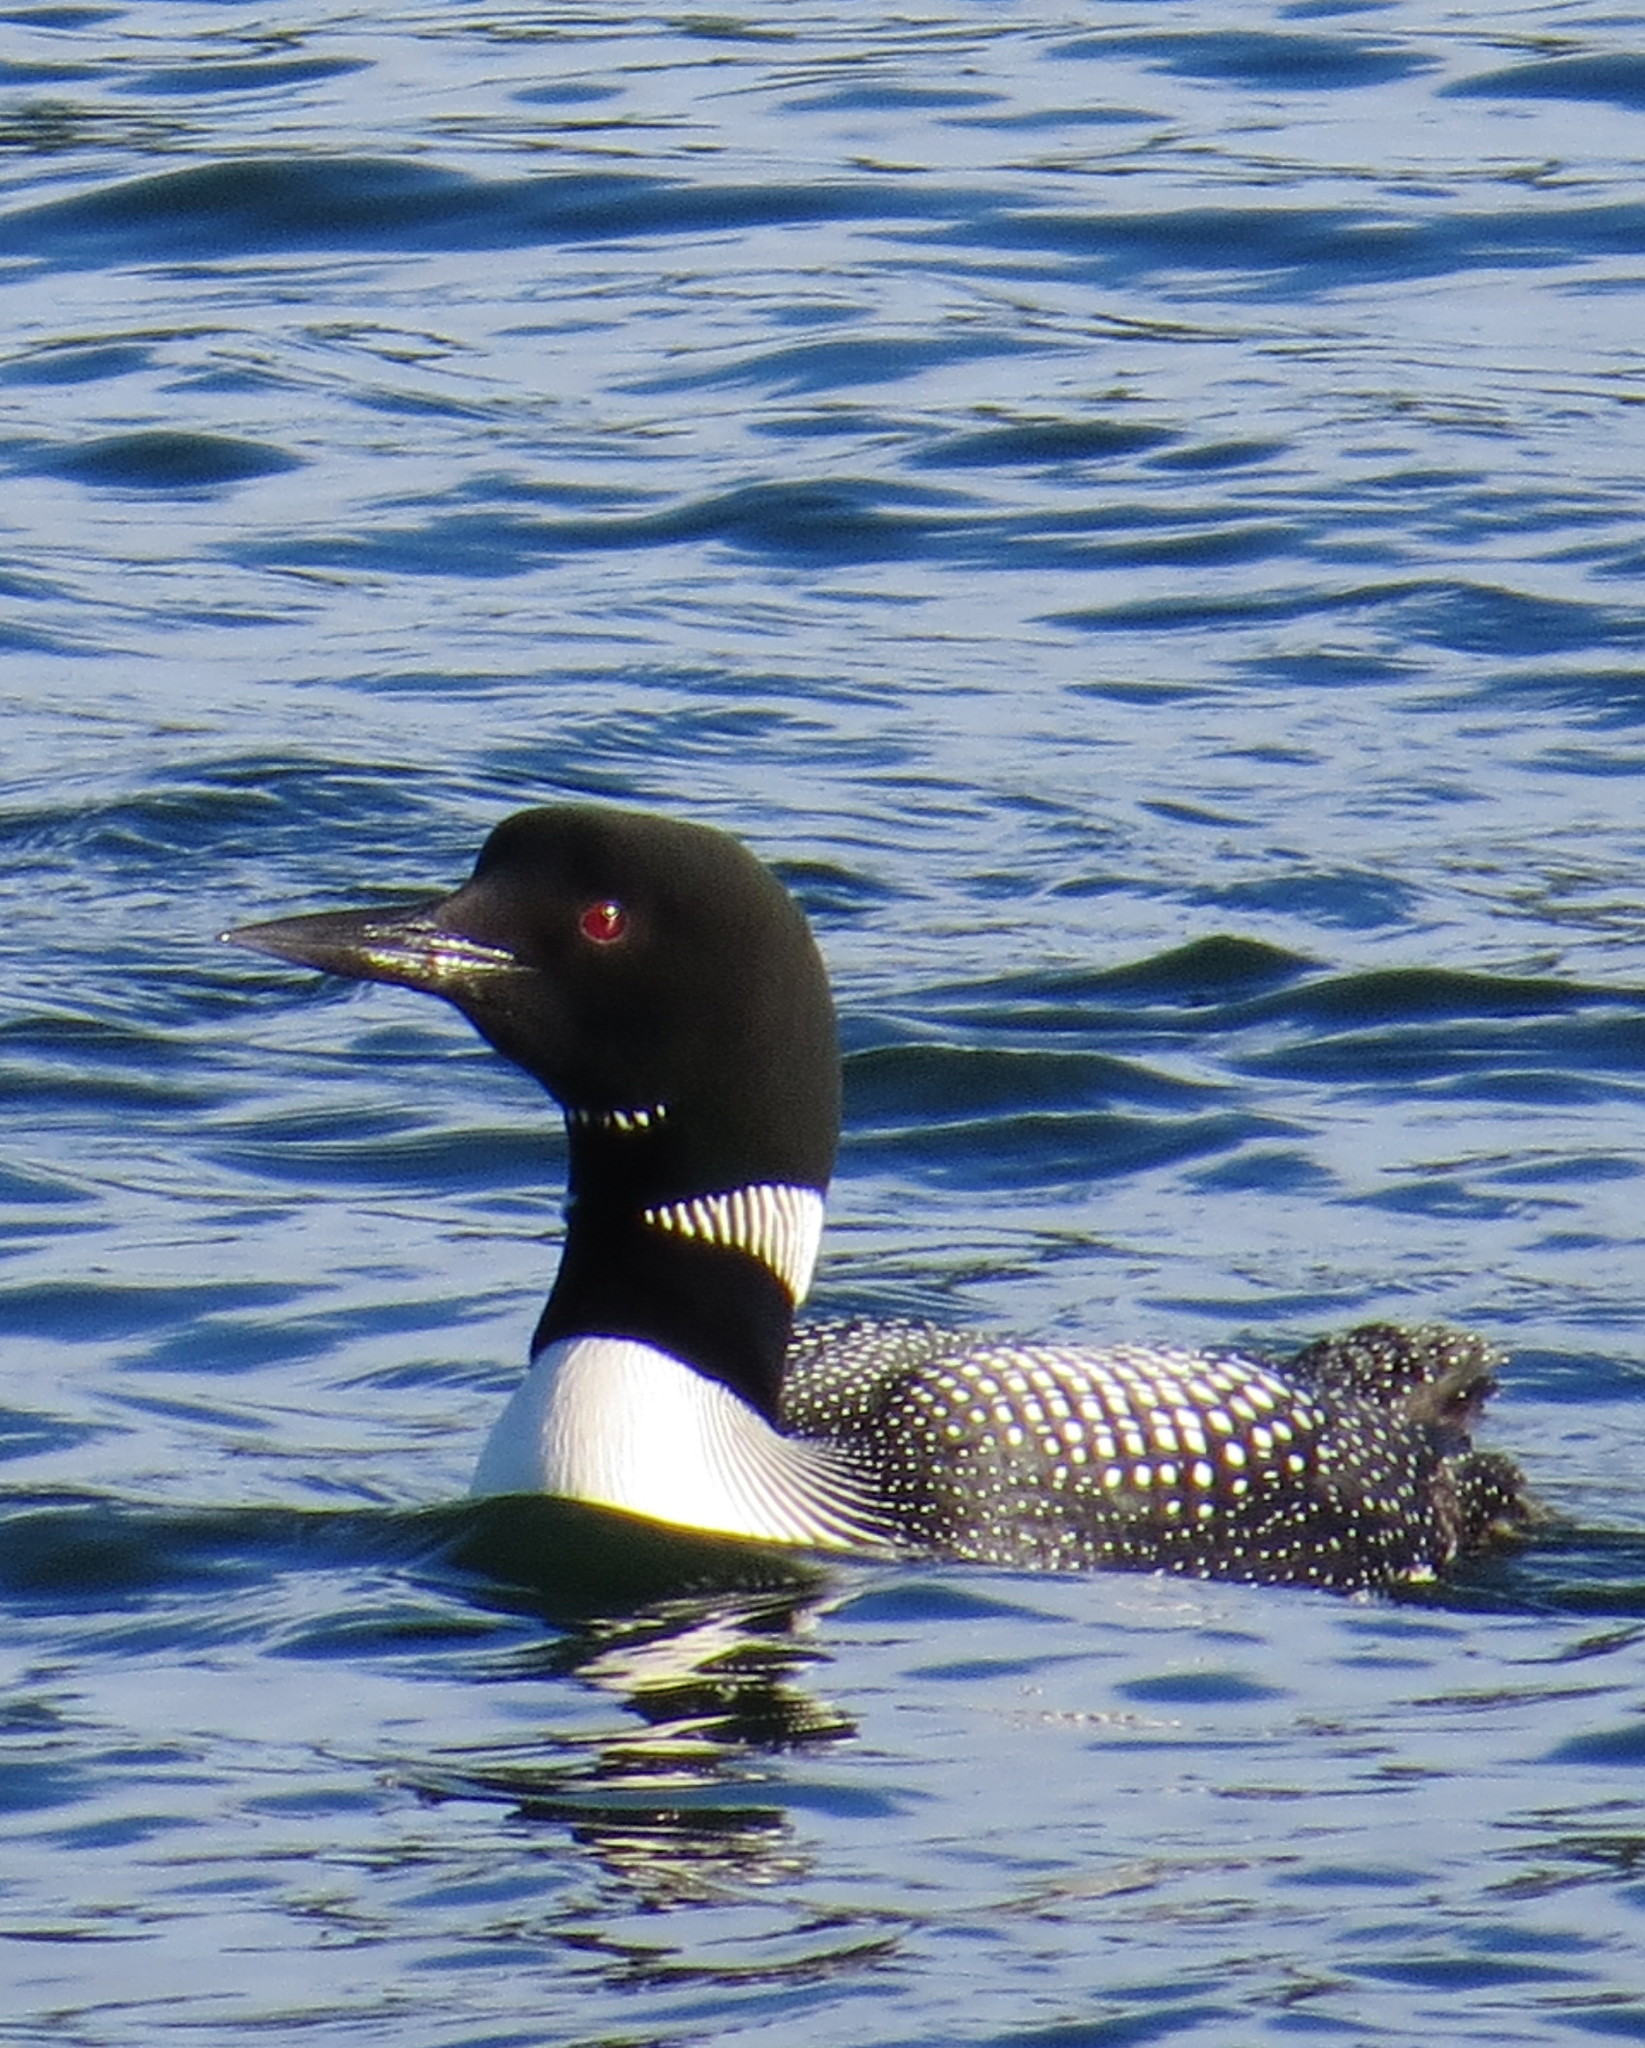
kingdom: Animalia
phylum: Chordata
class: Aves
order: Gaviiformes
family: Gaviidae
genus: Gavia
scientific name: Gavia immer
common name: Common loon
